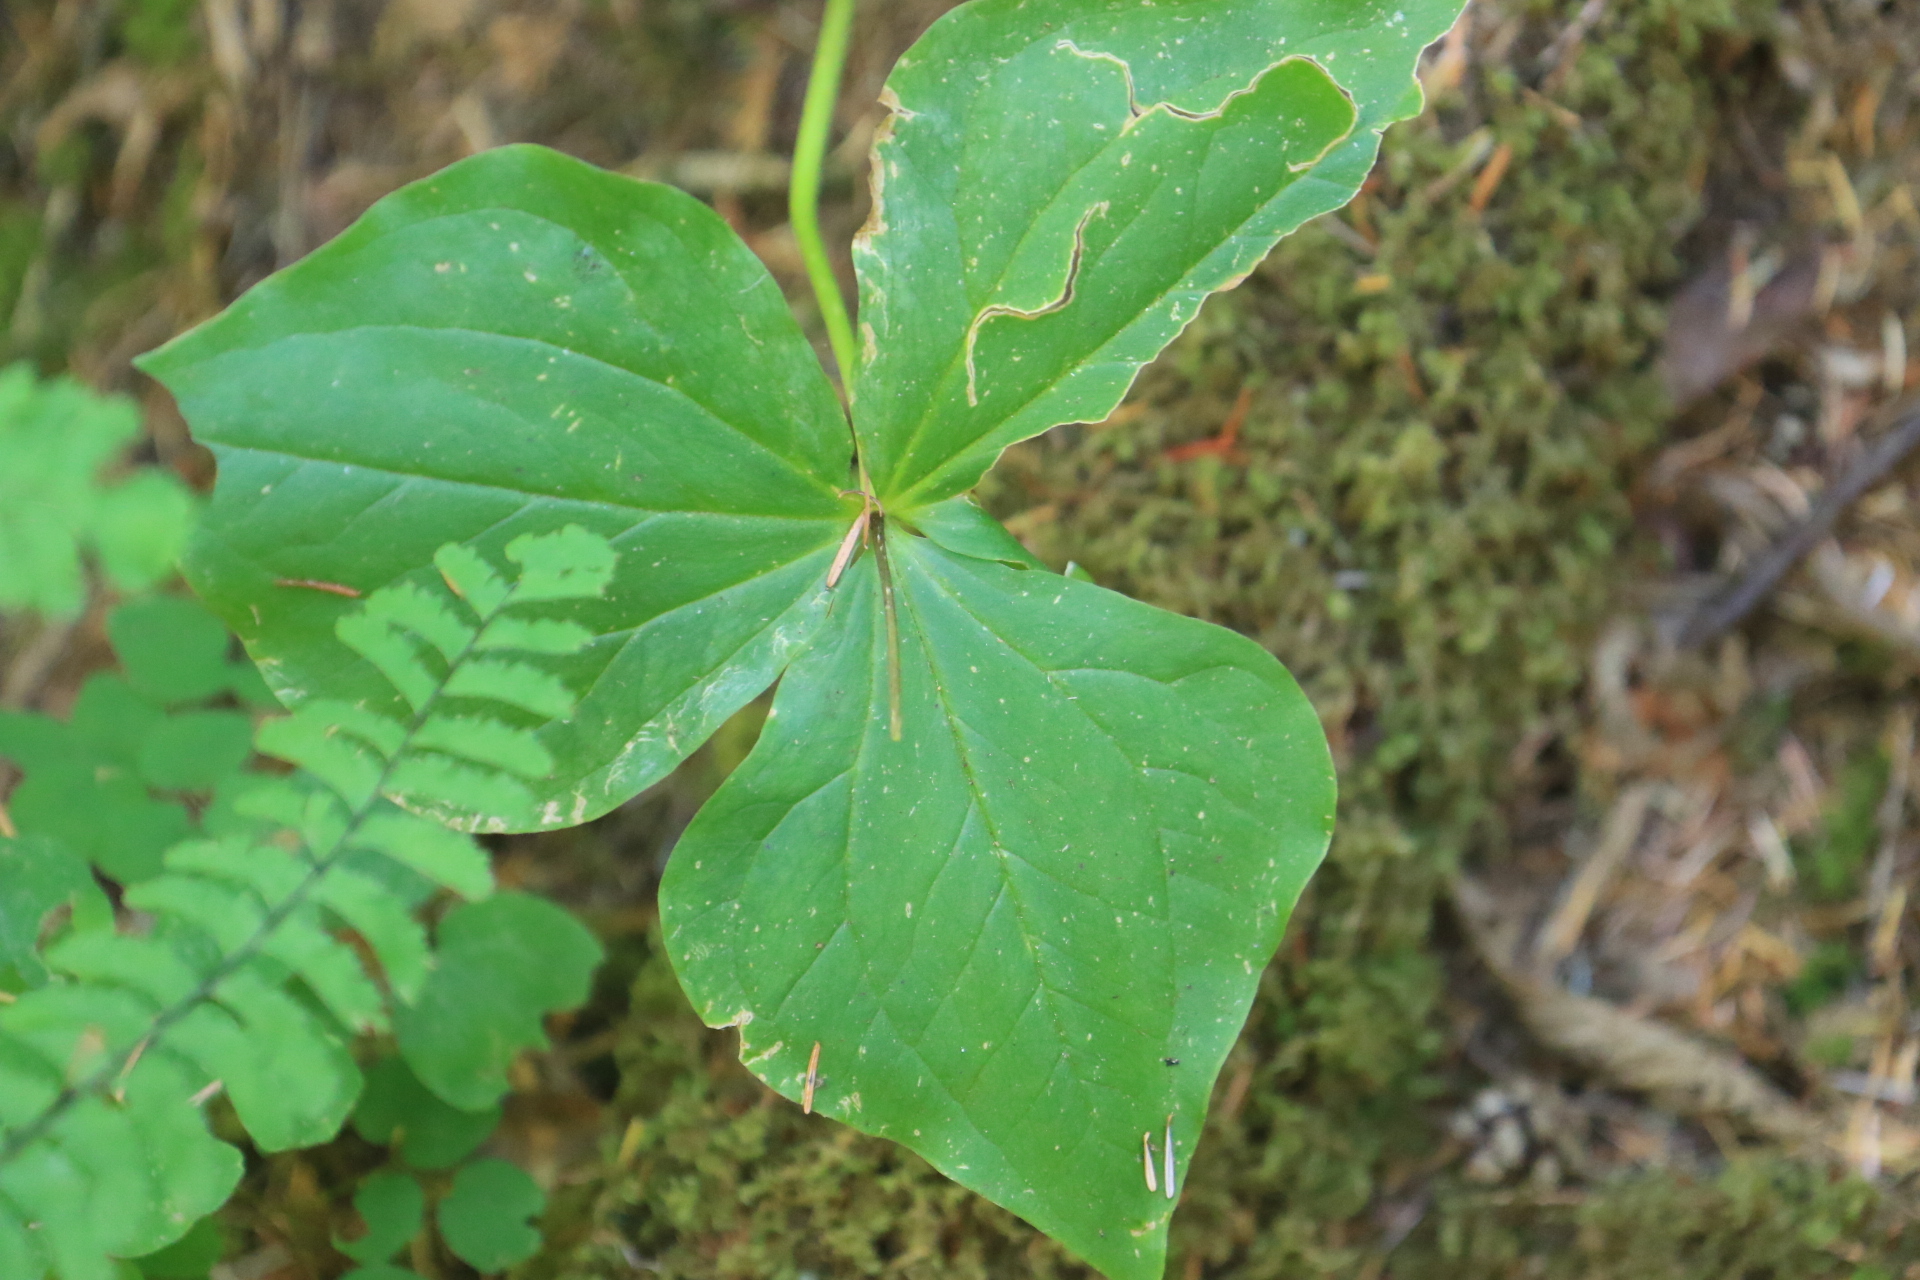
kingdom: Plantae
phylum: Tracheophyta
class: Liliopsida
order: Liliales
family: Melanthiaceae
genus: Trillium
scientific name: Trillium ovatum
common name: Pacific trillium
